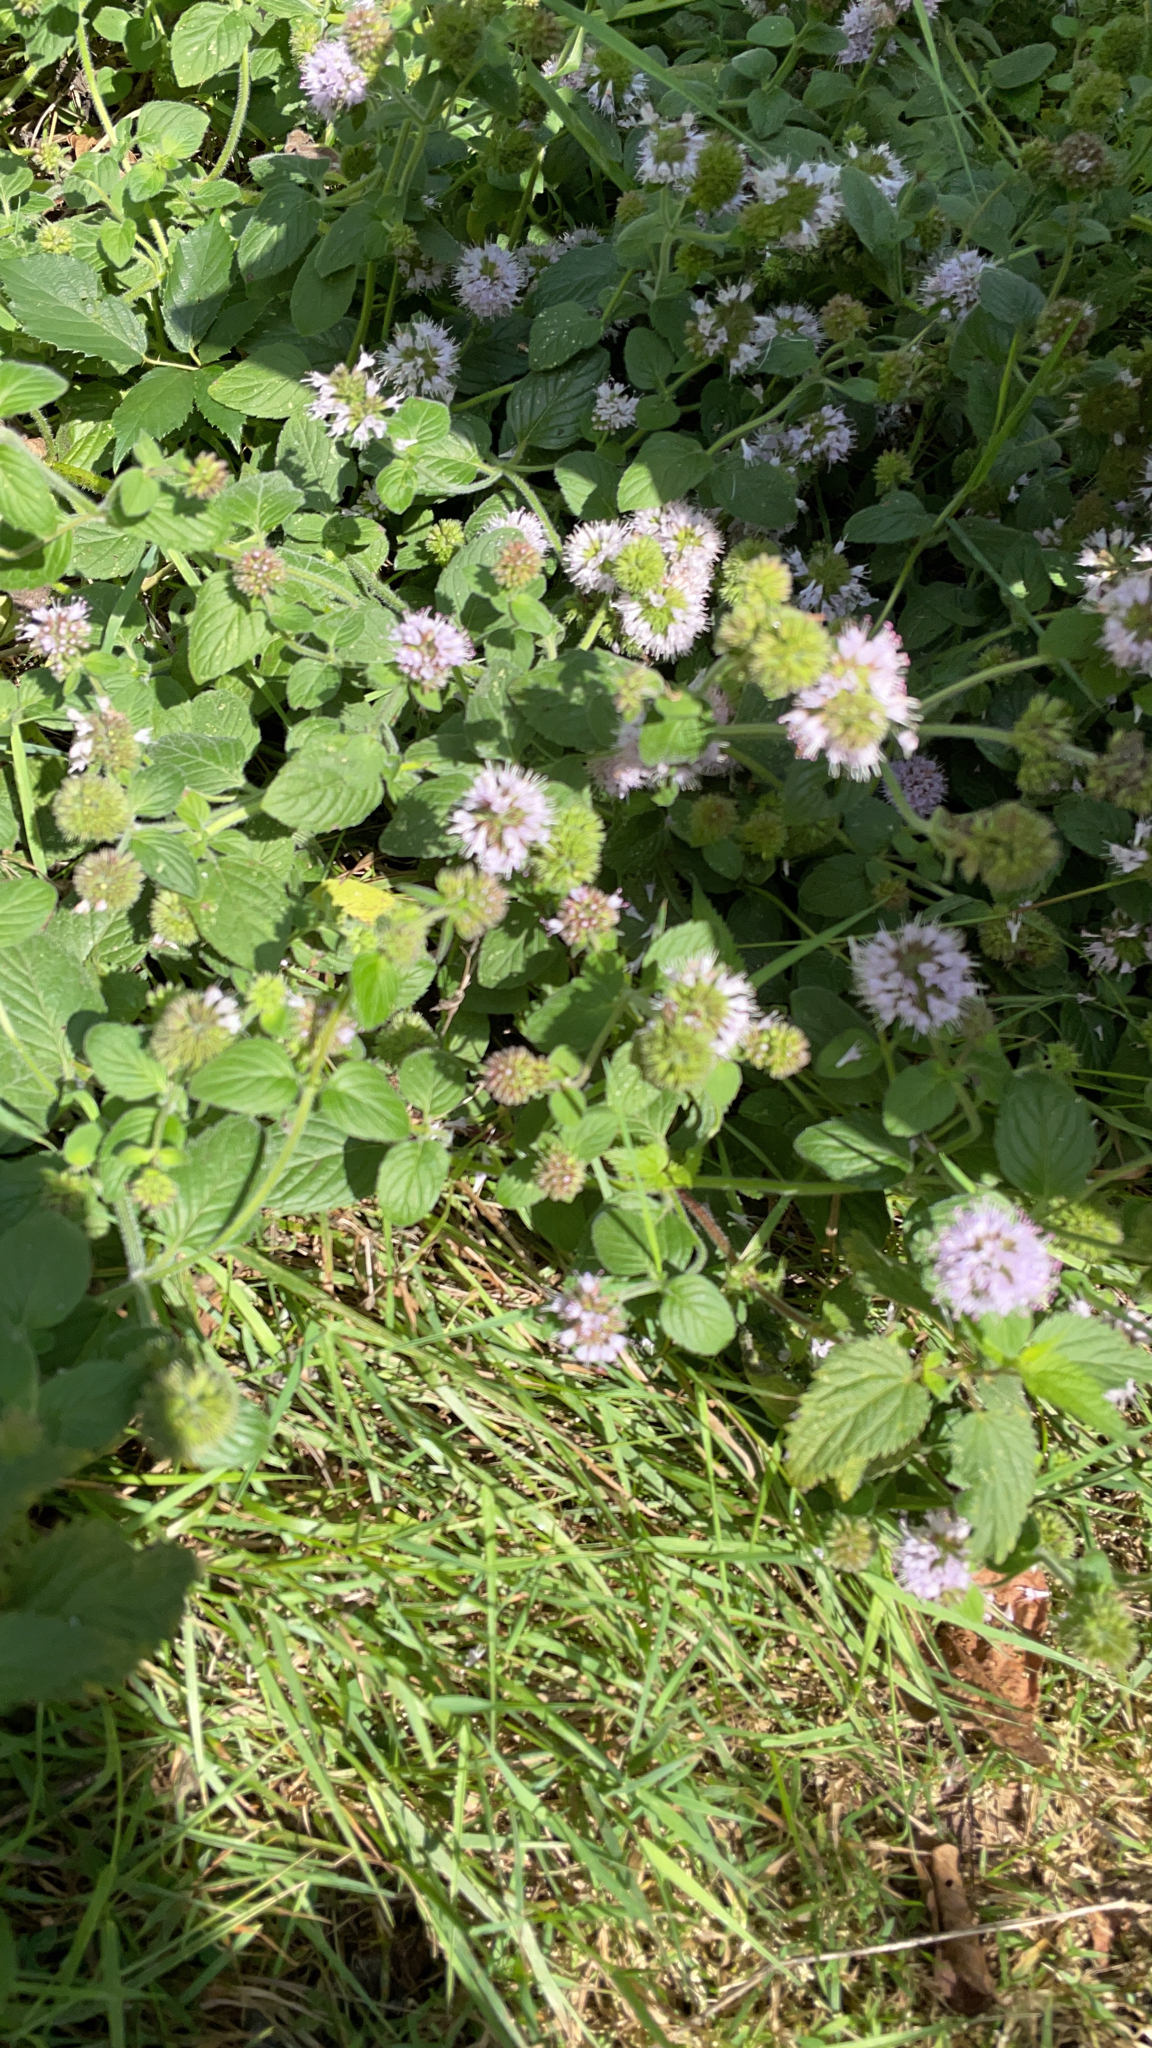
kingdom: Plantae
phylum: Tracheophyta
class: Magnoliopsida
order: Lamiales
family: Lamiaceae
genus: Mentha
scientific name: Mentha aquatica
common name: Water mint
